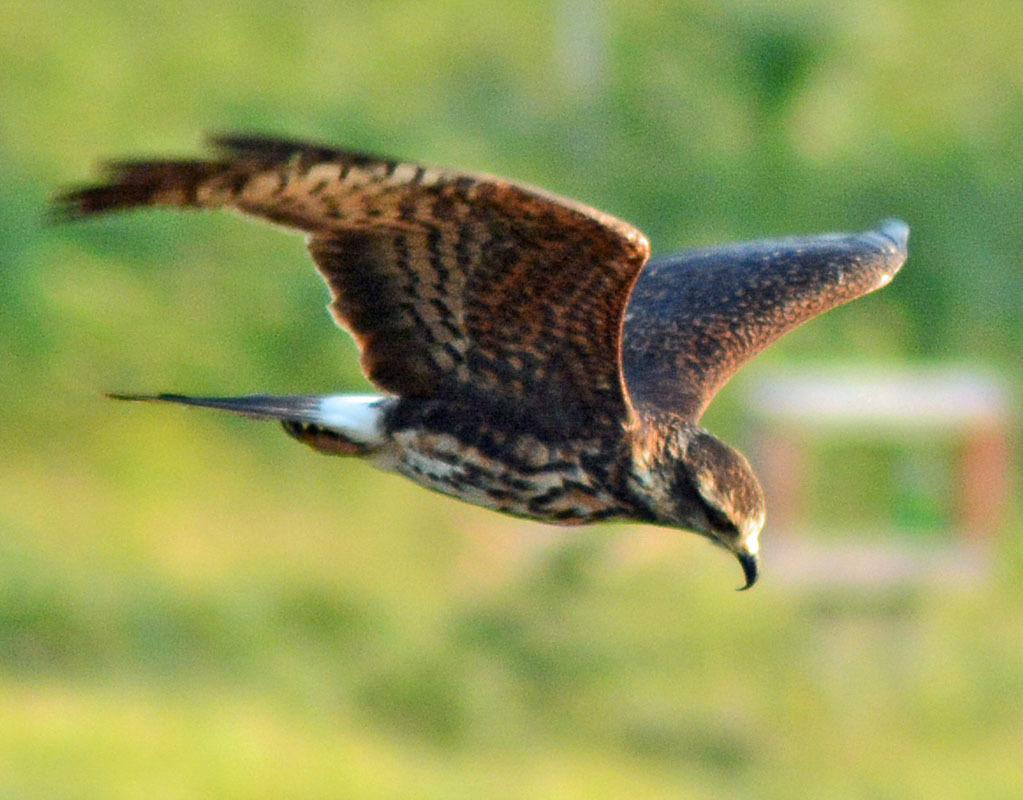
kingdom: Animalia
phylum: Chordata
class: Aves
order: Accipitriformes
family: Accipitridae
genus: Rostrhamus
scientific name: Rostrhamus sociabilis
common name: Snail kite
